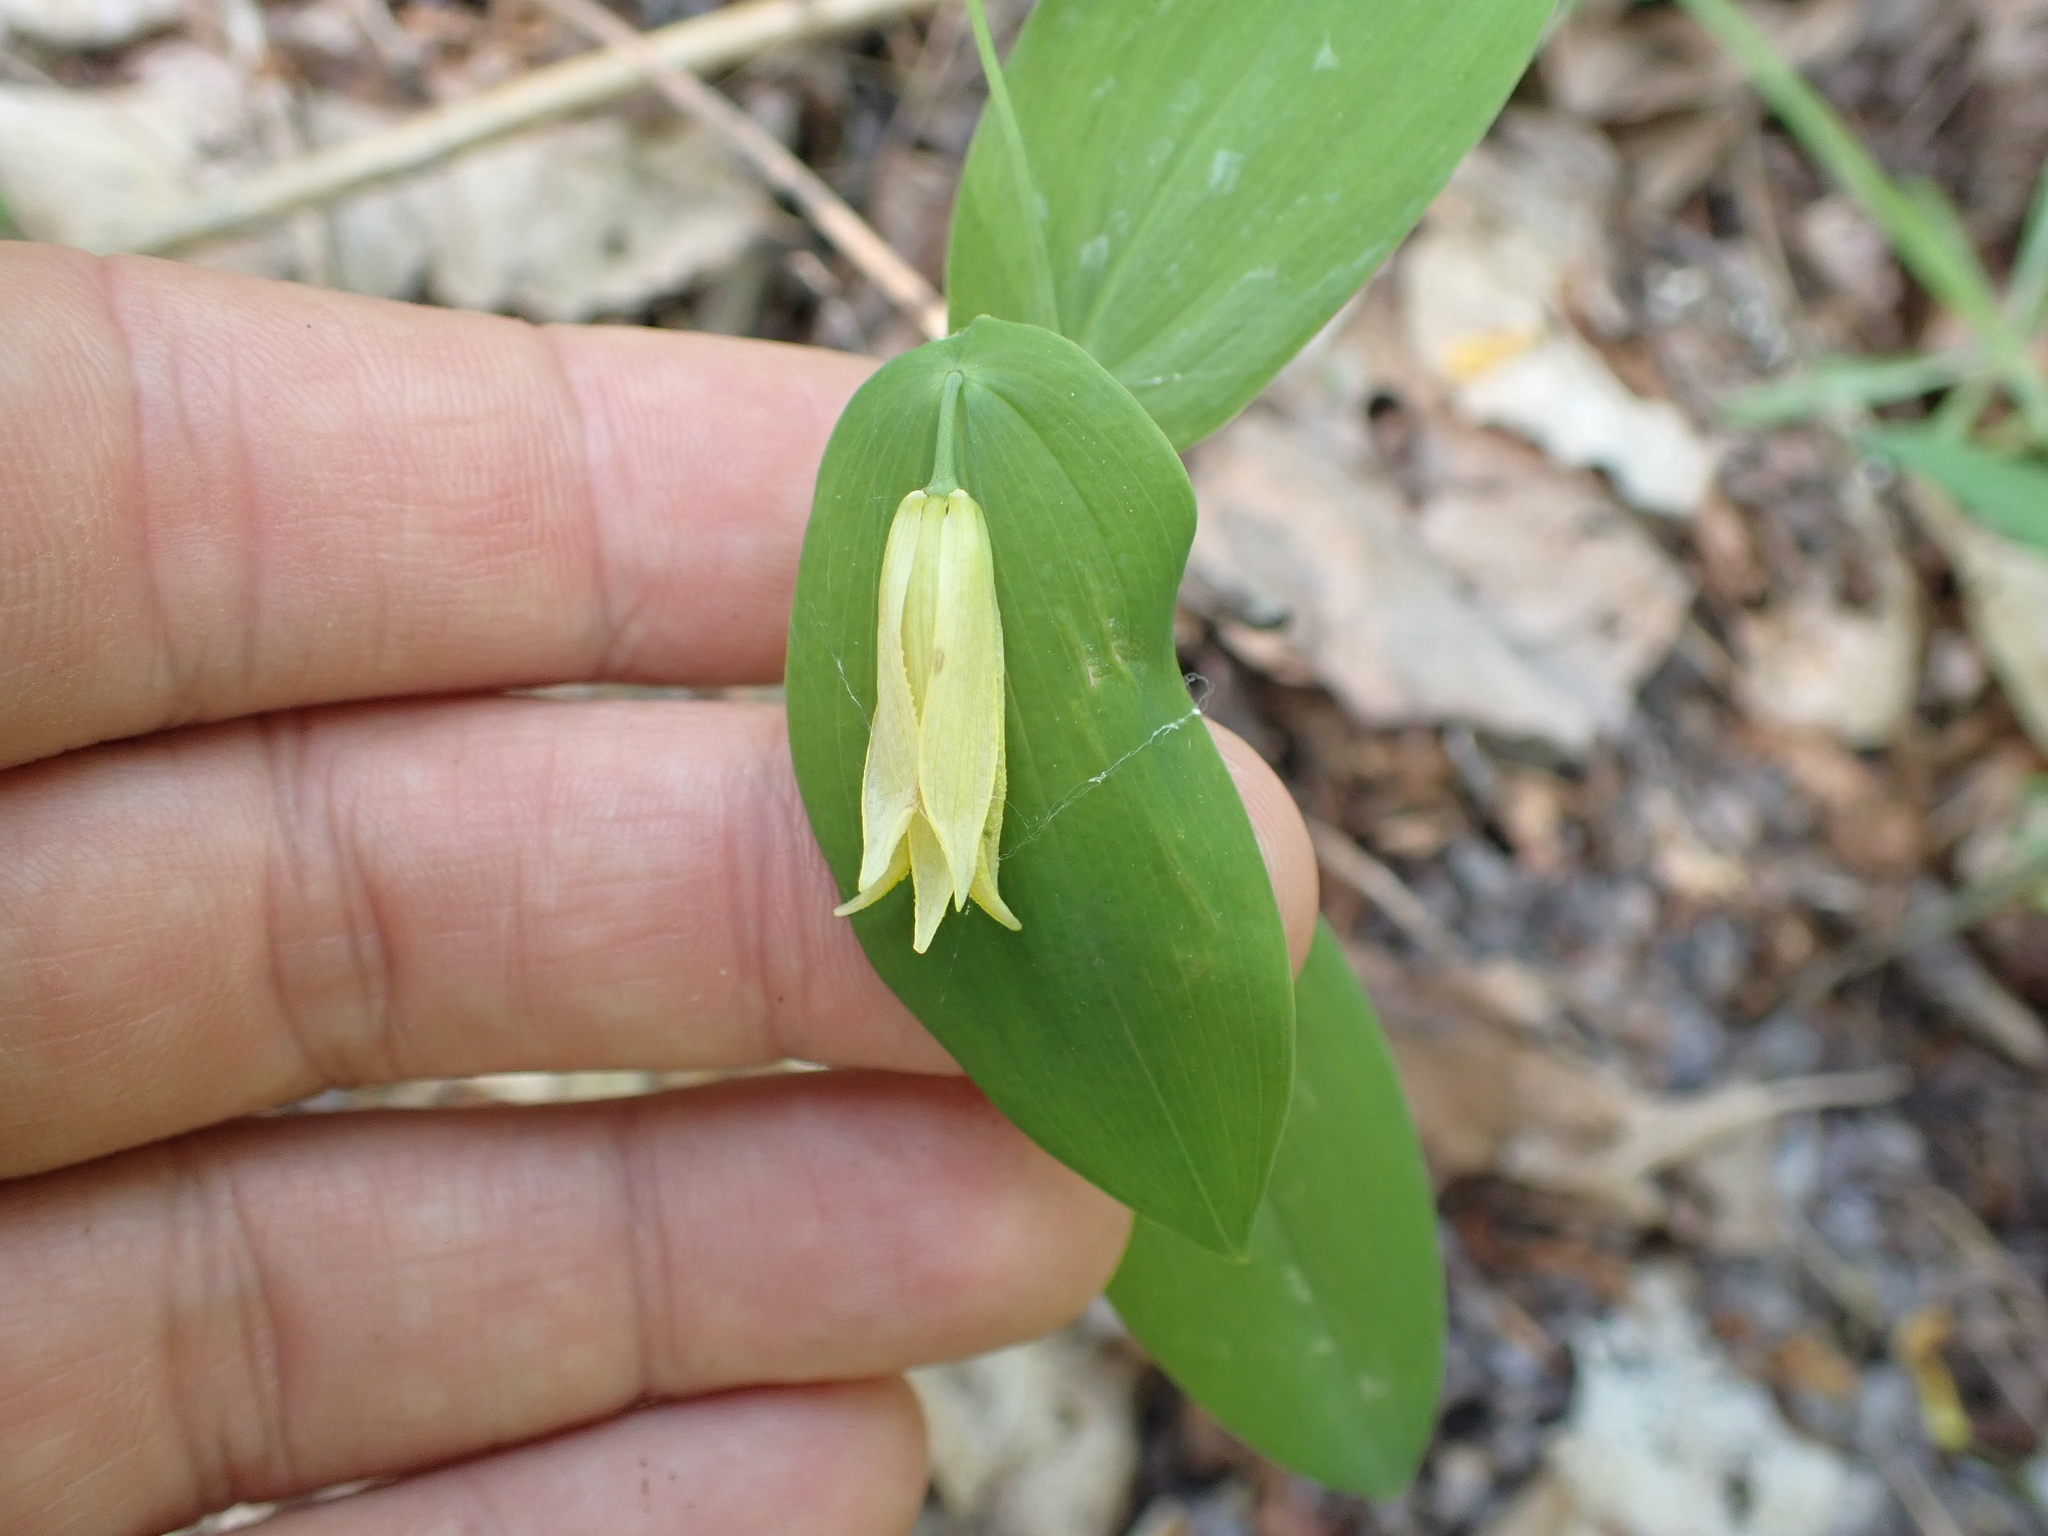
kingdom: Plantae
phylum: Tracheophyta
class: Liliopsida
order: Liliales
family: Colchicaceae
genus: Uvularia
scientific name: Uvularia perfoliata
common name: Perfoliate bellwort
